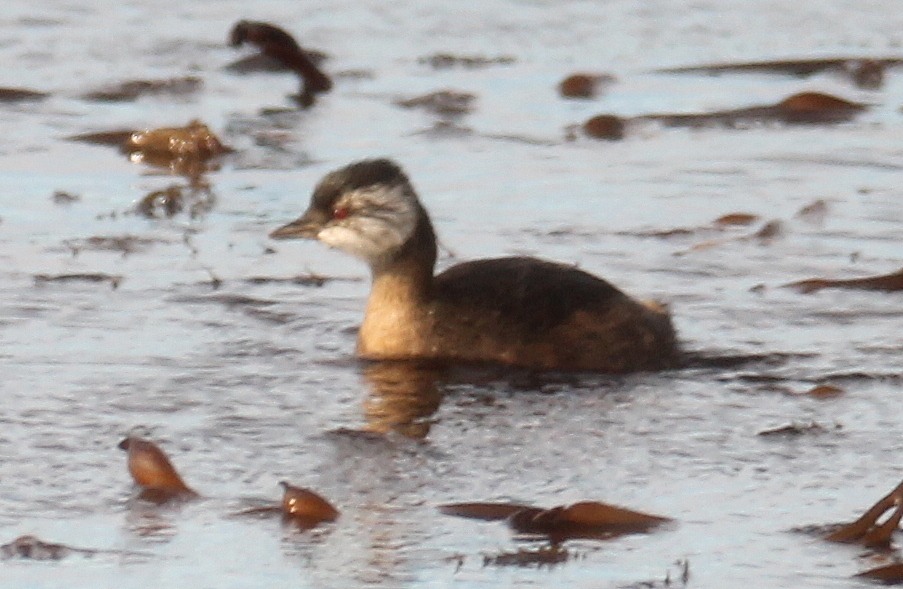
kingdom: Animalia
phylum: Chordata
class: Aves
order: Podicipediformes
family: Podicipedidae
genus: Rollandia
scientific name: Rollandia rolland
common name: White-tufted grebe
